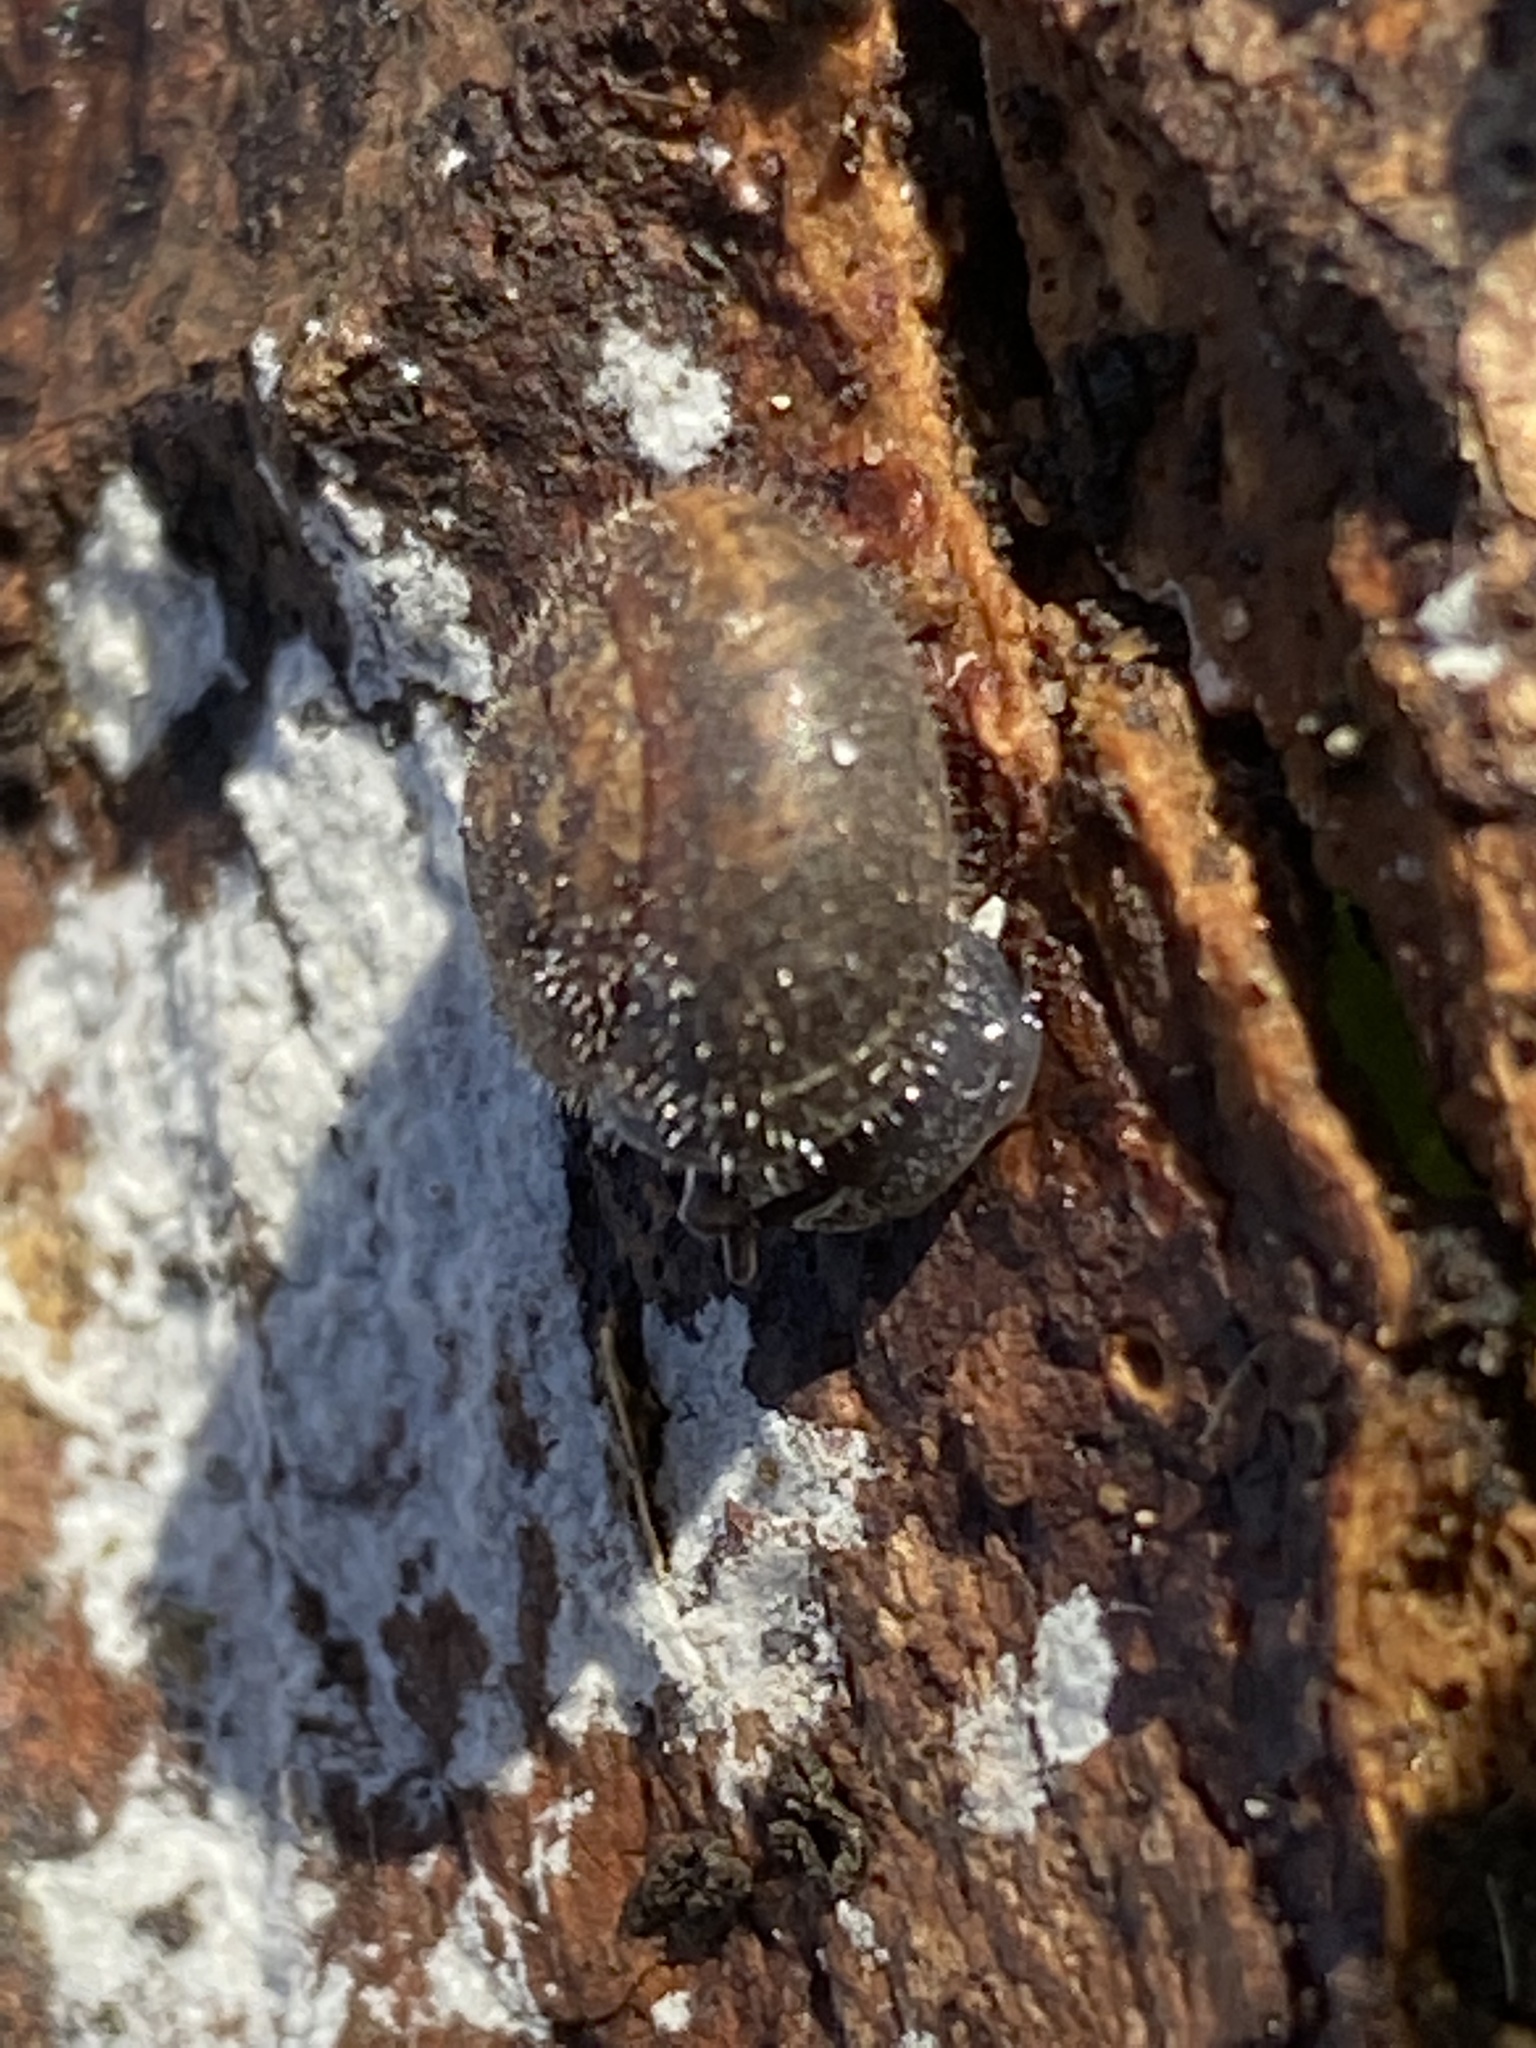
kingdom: Animalia
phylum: Mollusca
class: Gastropoda
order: Stylommatophora
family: Hygromiidae
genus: Trochulus
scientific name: Trochulus hispidus
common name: Hairy snail
